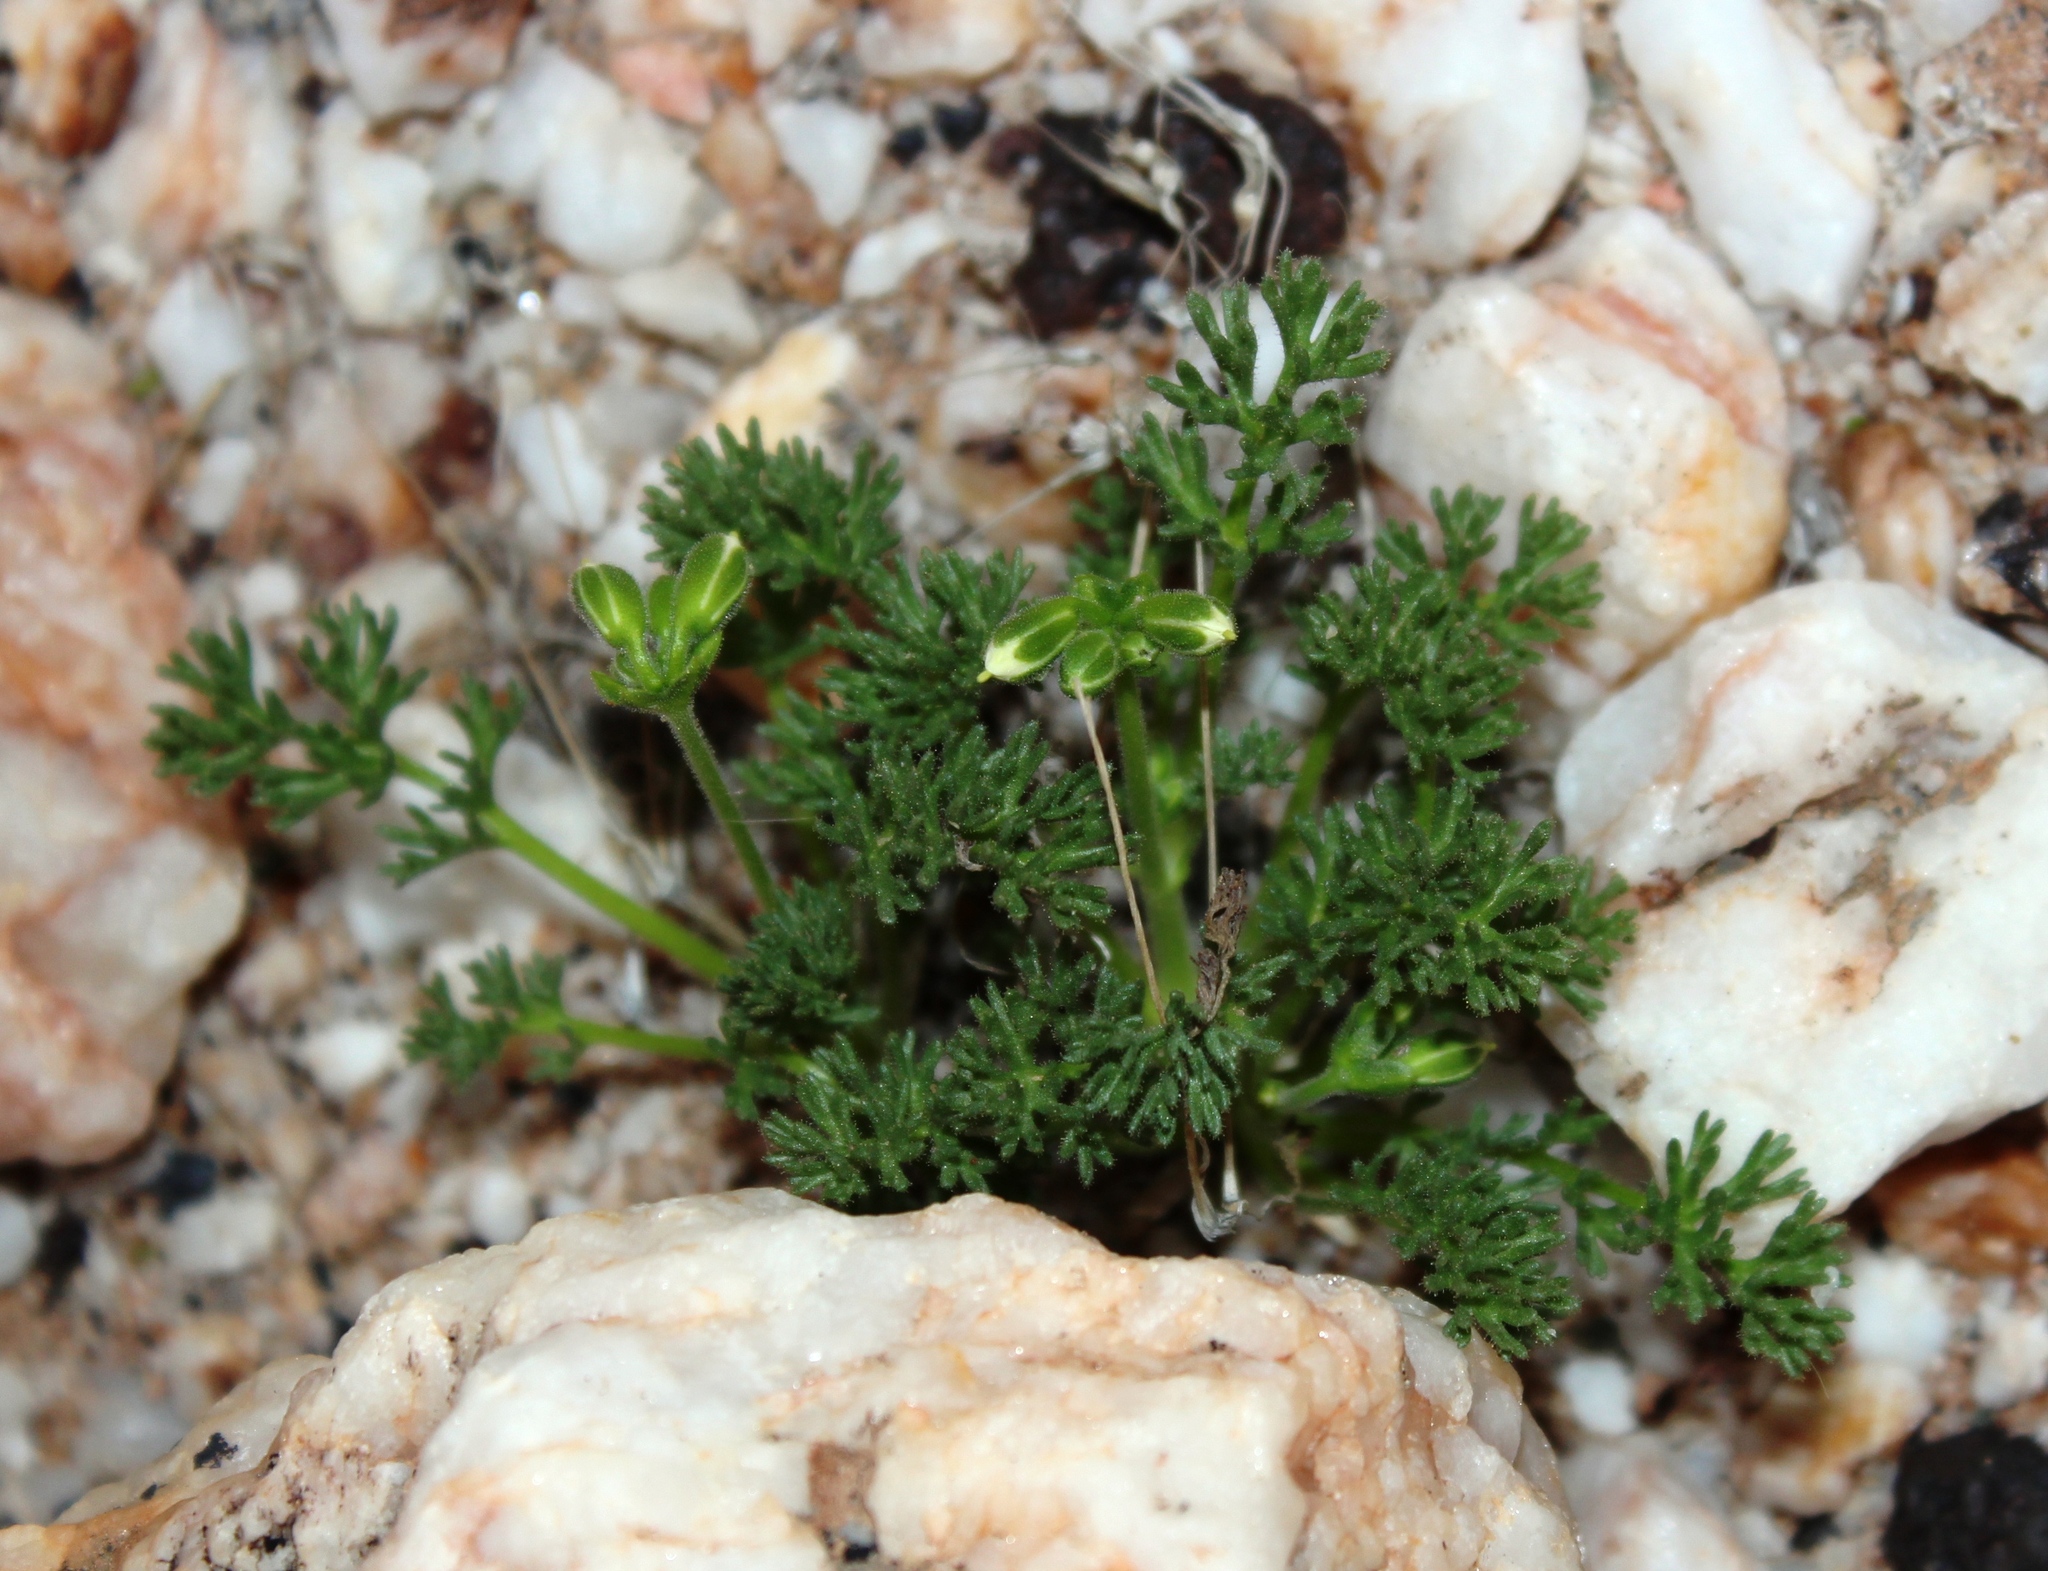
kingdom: Plantae
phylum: Tracheophyta
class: Magnoliopsida
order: Geraniales
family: Geraniaceae
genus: Pelargonium
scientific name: Pelargonium quarciticola
